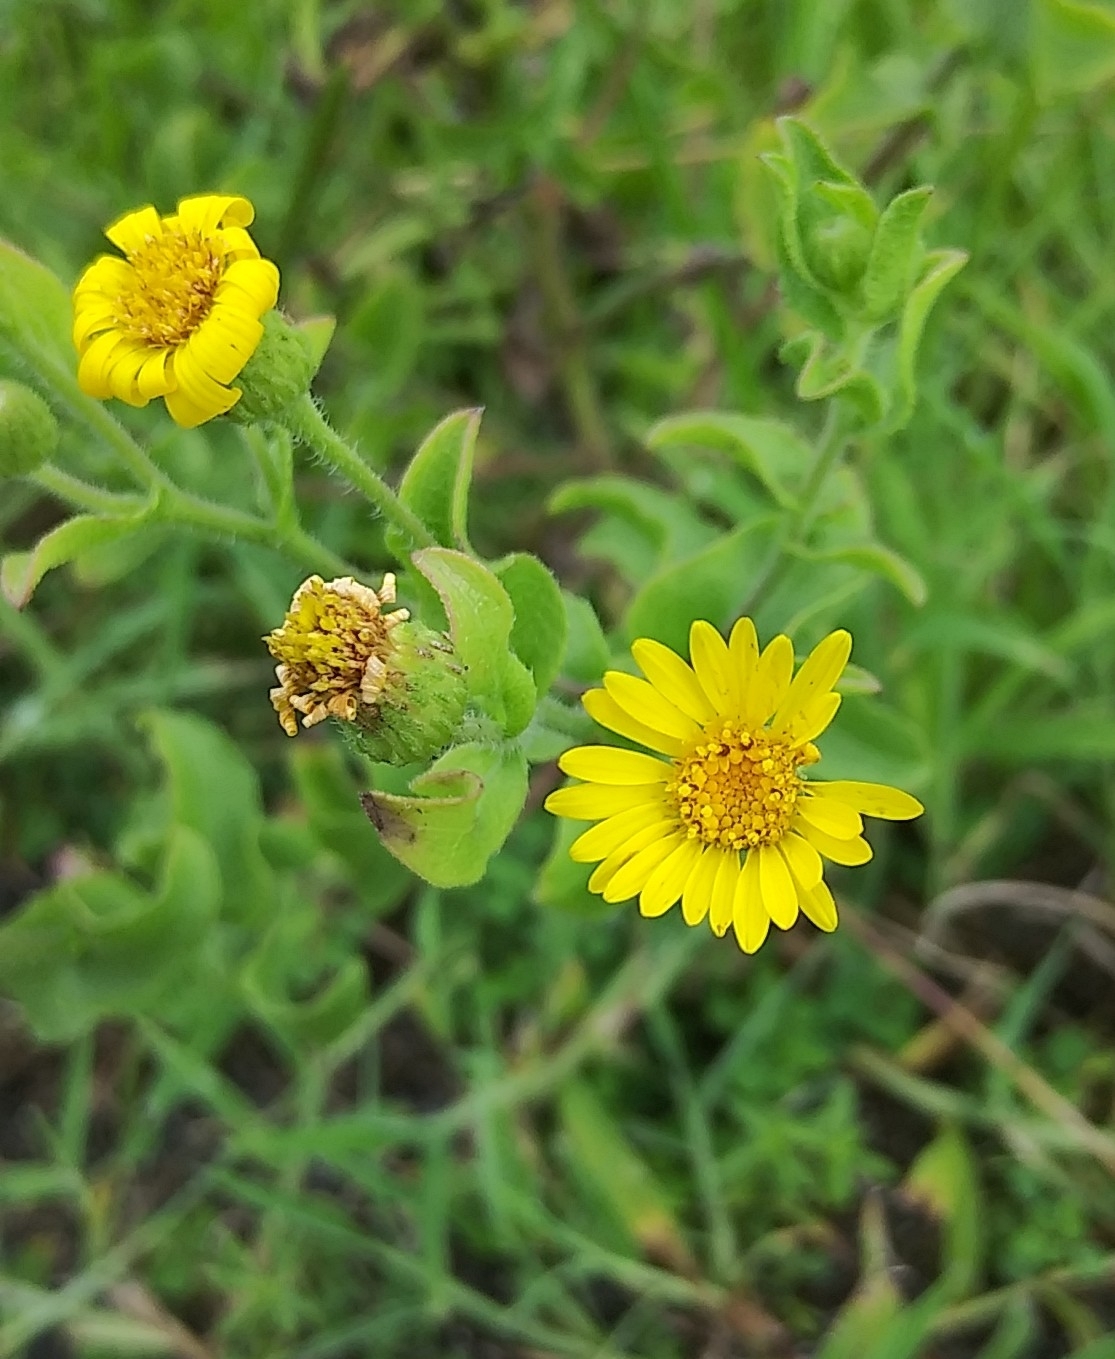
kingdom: Plantae
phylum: Tracheophyta
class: Magnoliopsida
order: Asterales
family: Asteraceae
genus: Heterotheca
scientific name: Heterotheca subaxillaris
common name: Camphorweed
